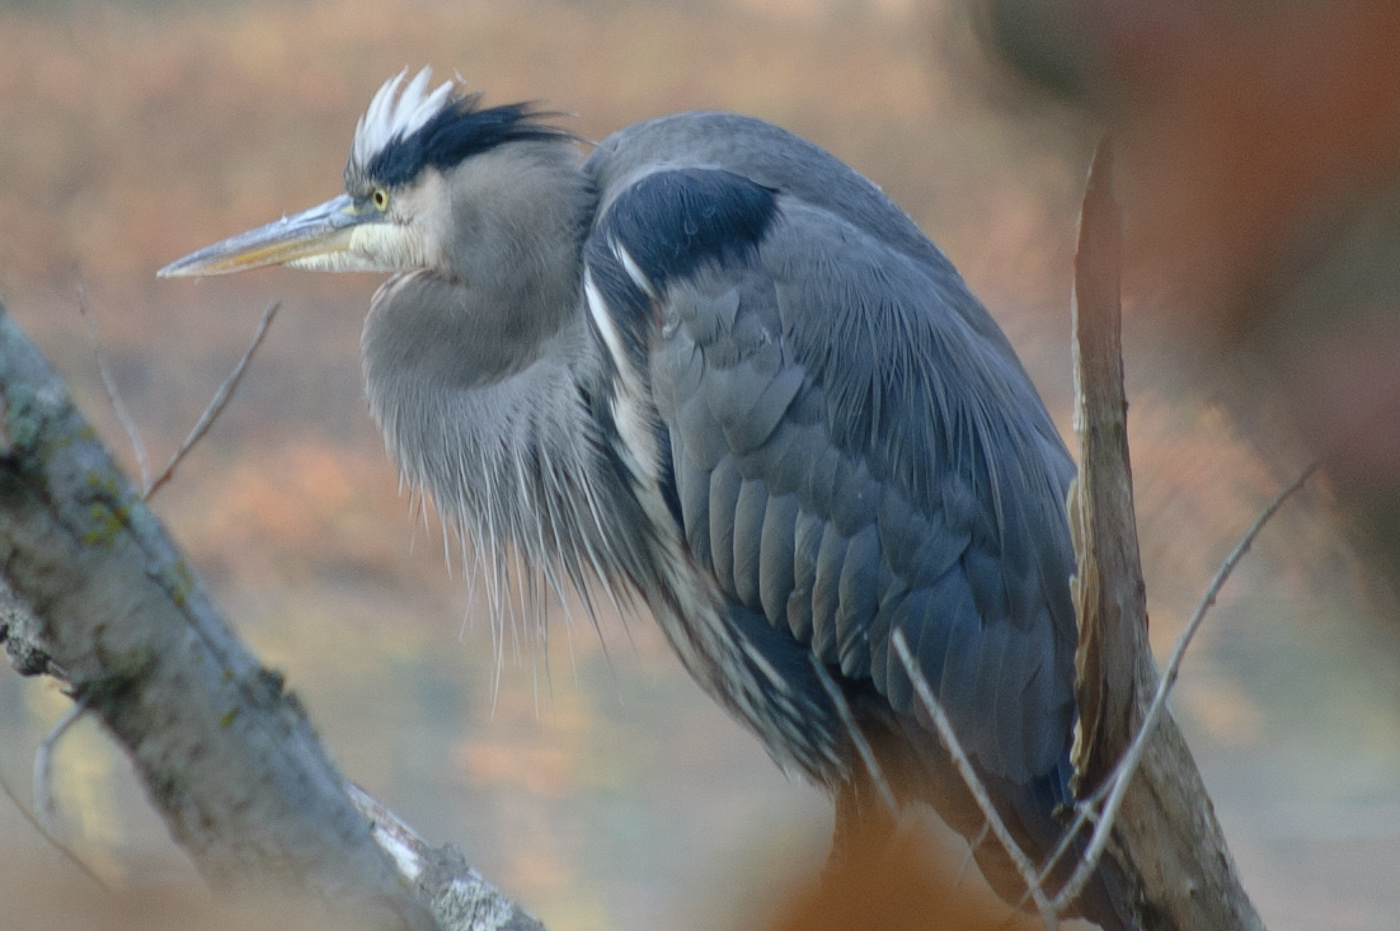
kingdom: Animalia
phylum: Chordata
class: Aves
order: Pelecaniformes
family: Ardeidae
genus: Ardea
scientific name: Ardea herodias
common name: Great blue heron
